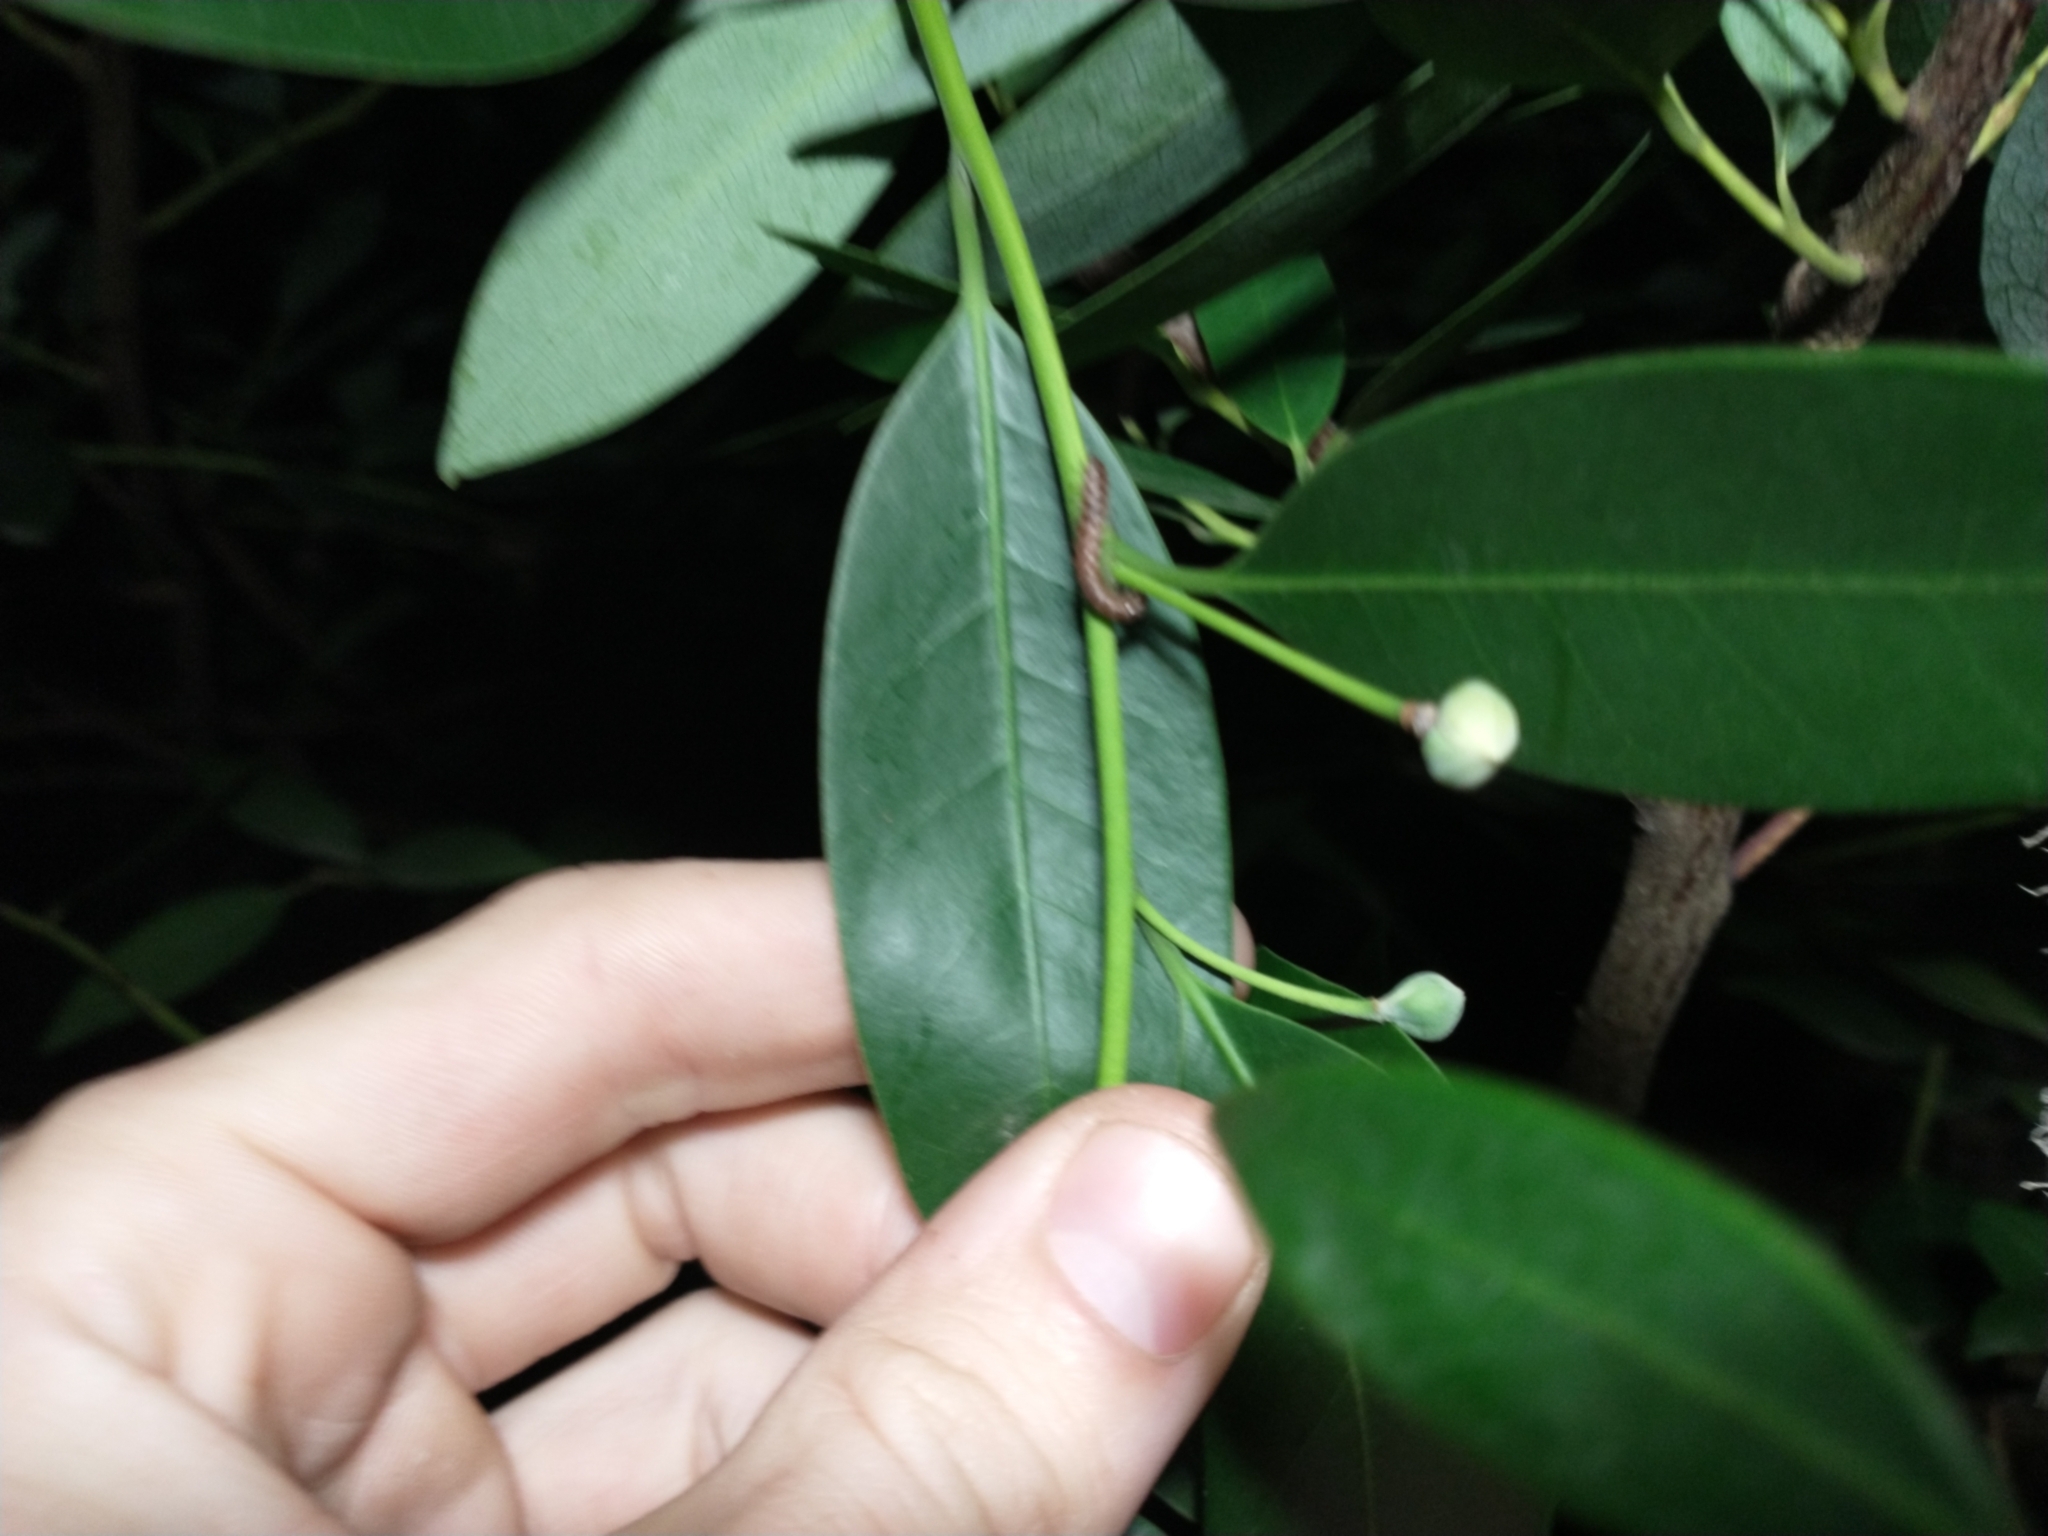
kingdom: Plantae
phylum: Tracheophyta
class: Magnoliopsida
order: Laurales
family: Lauraceae
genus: Umbellularia
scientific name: Umbellularia californica
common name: California bay
